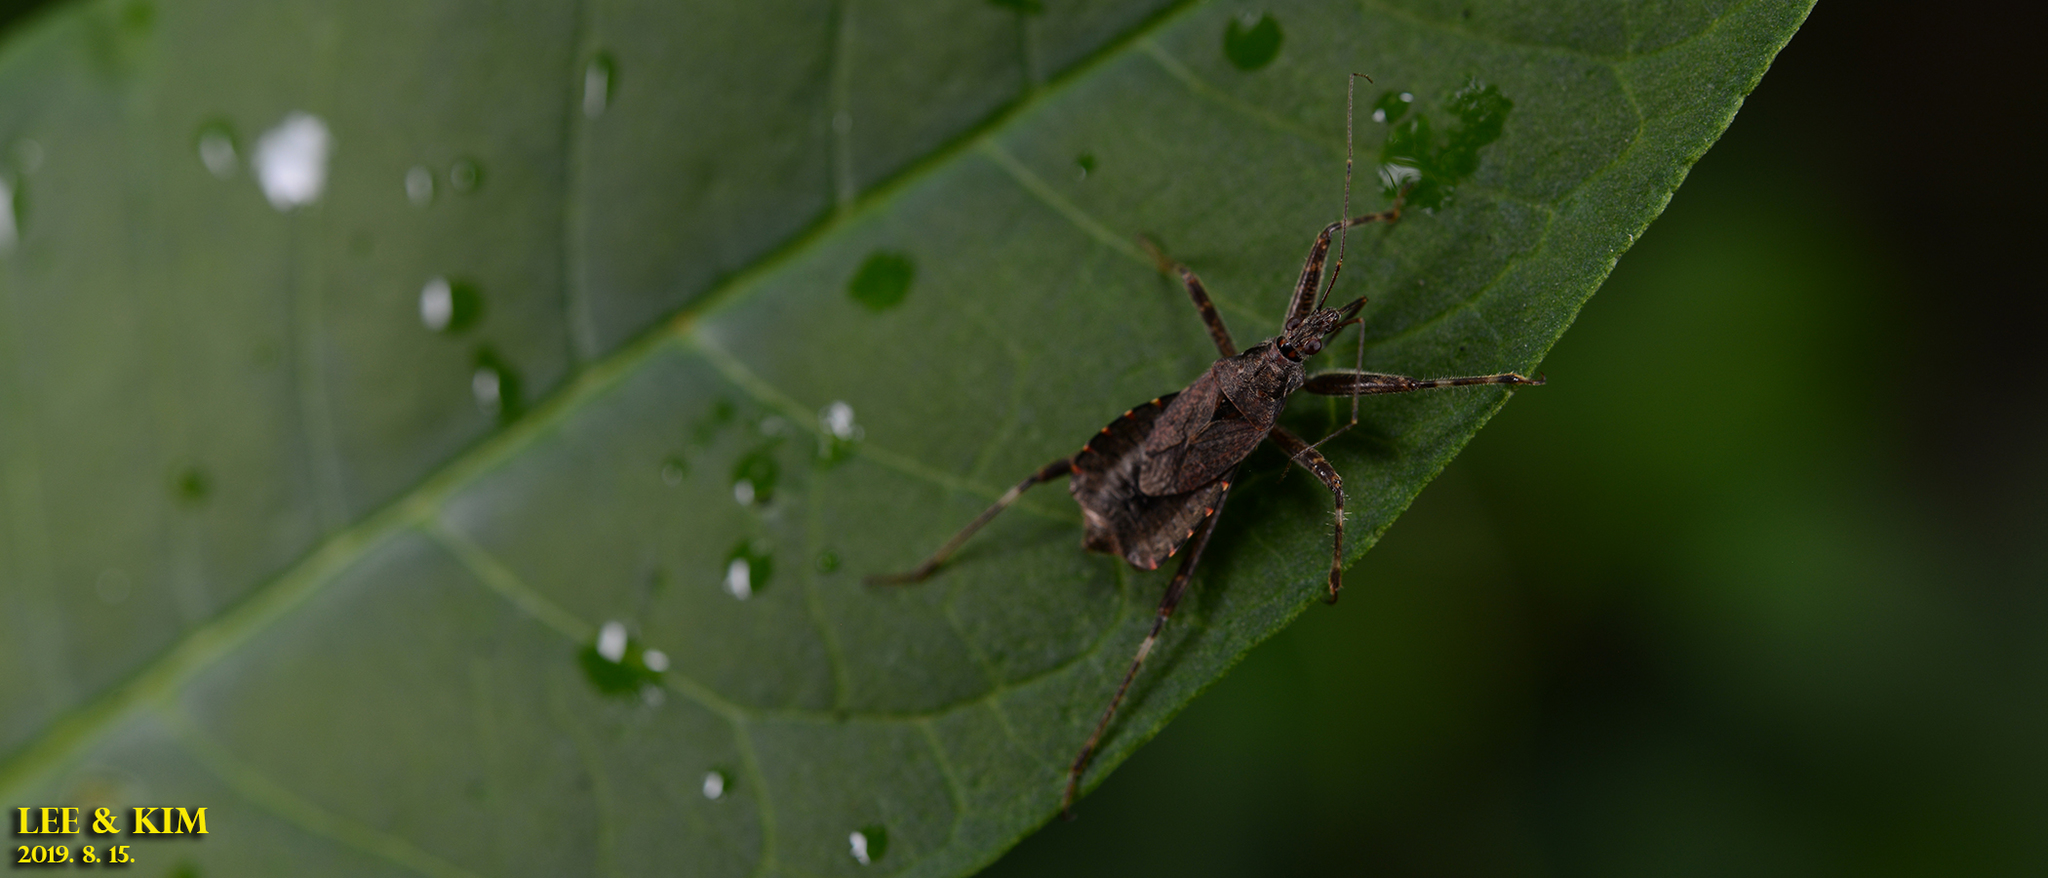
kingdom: Animalia
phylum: Arthropoda
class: Insecta
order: Hemiptera
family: Nabidae
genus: Himacerus
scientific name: Himacerus apterus
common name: Tree damsel bug
